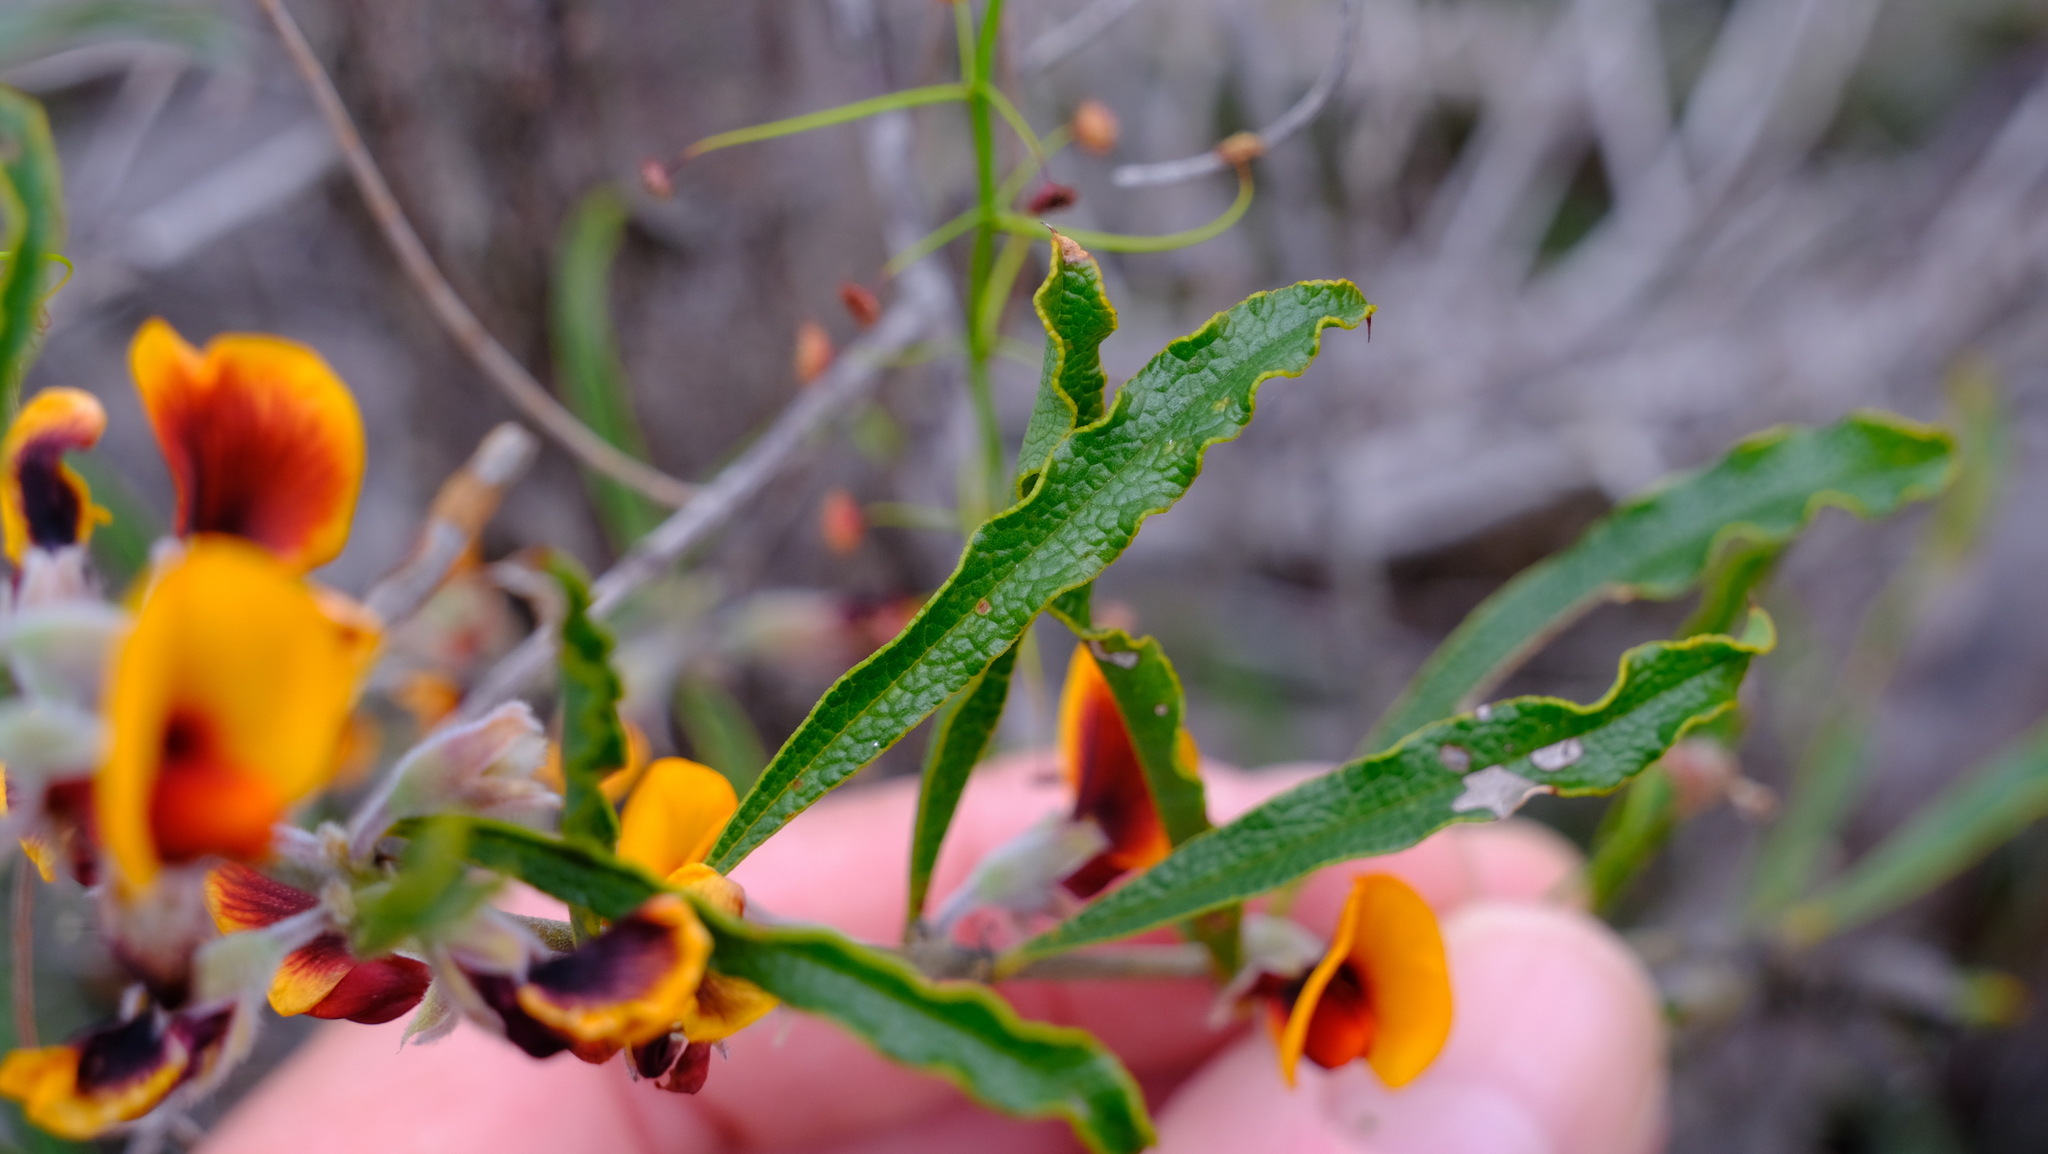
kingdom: Plantae
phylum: Tracheophyta
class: Magnoliopsida
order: Fabales
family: Fabaceae
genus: Gastrolobium
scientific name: Gastrolobium linearifolium
